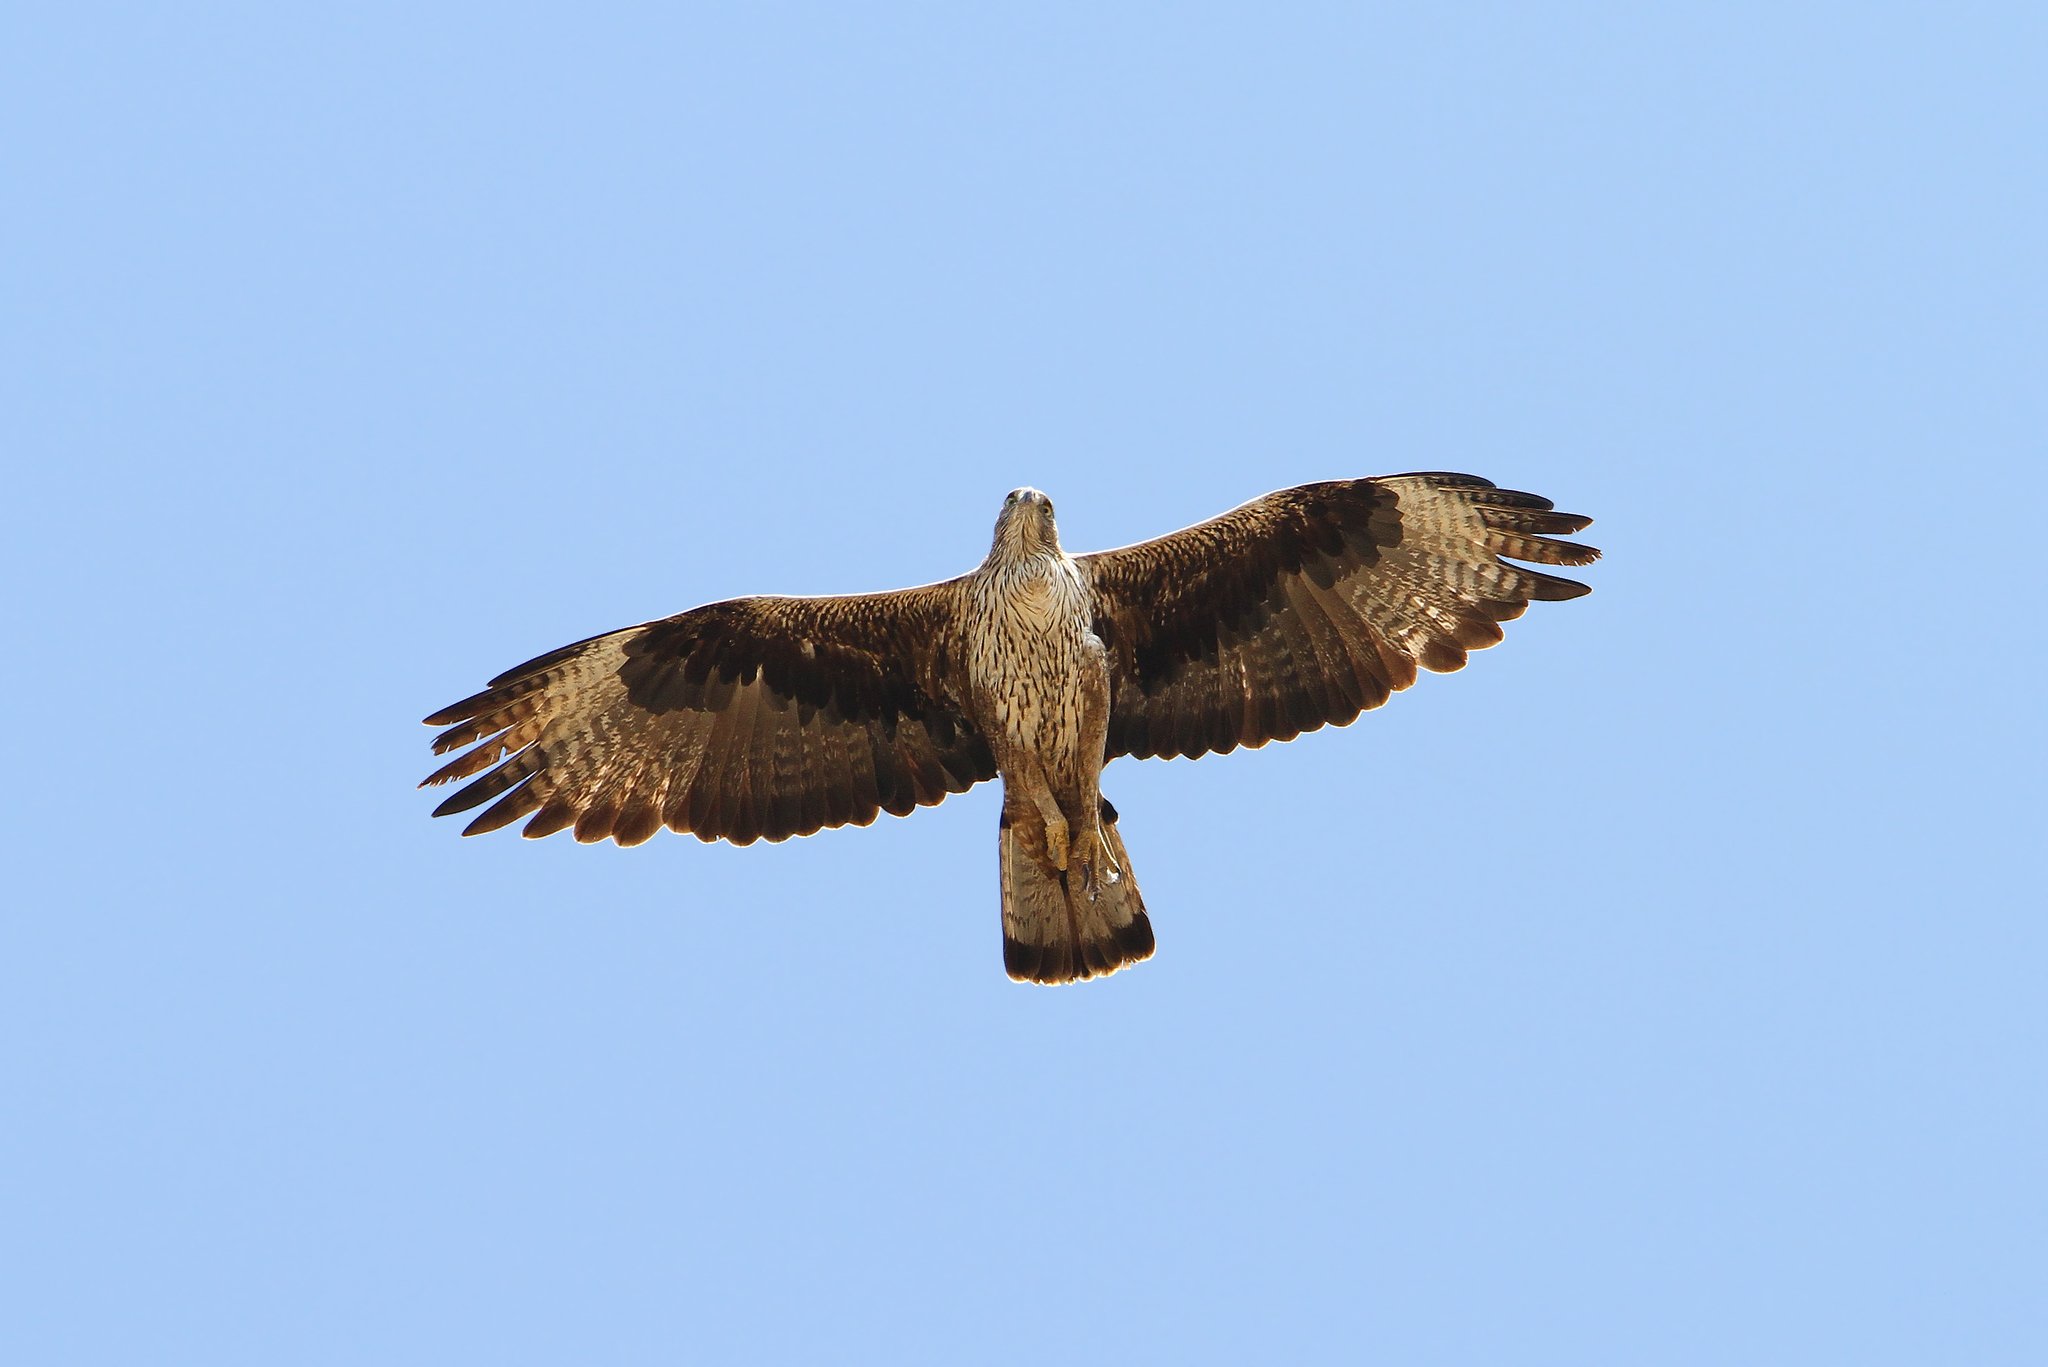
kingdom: Animalia
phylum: Chordata
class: Aves
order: Accipitriformes
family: Accipitridae
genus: Aquila
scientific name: Aquila fasciata
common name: Bonelli's eagle
